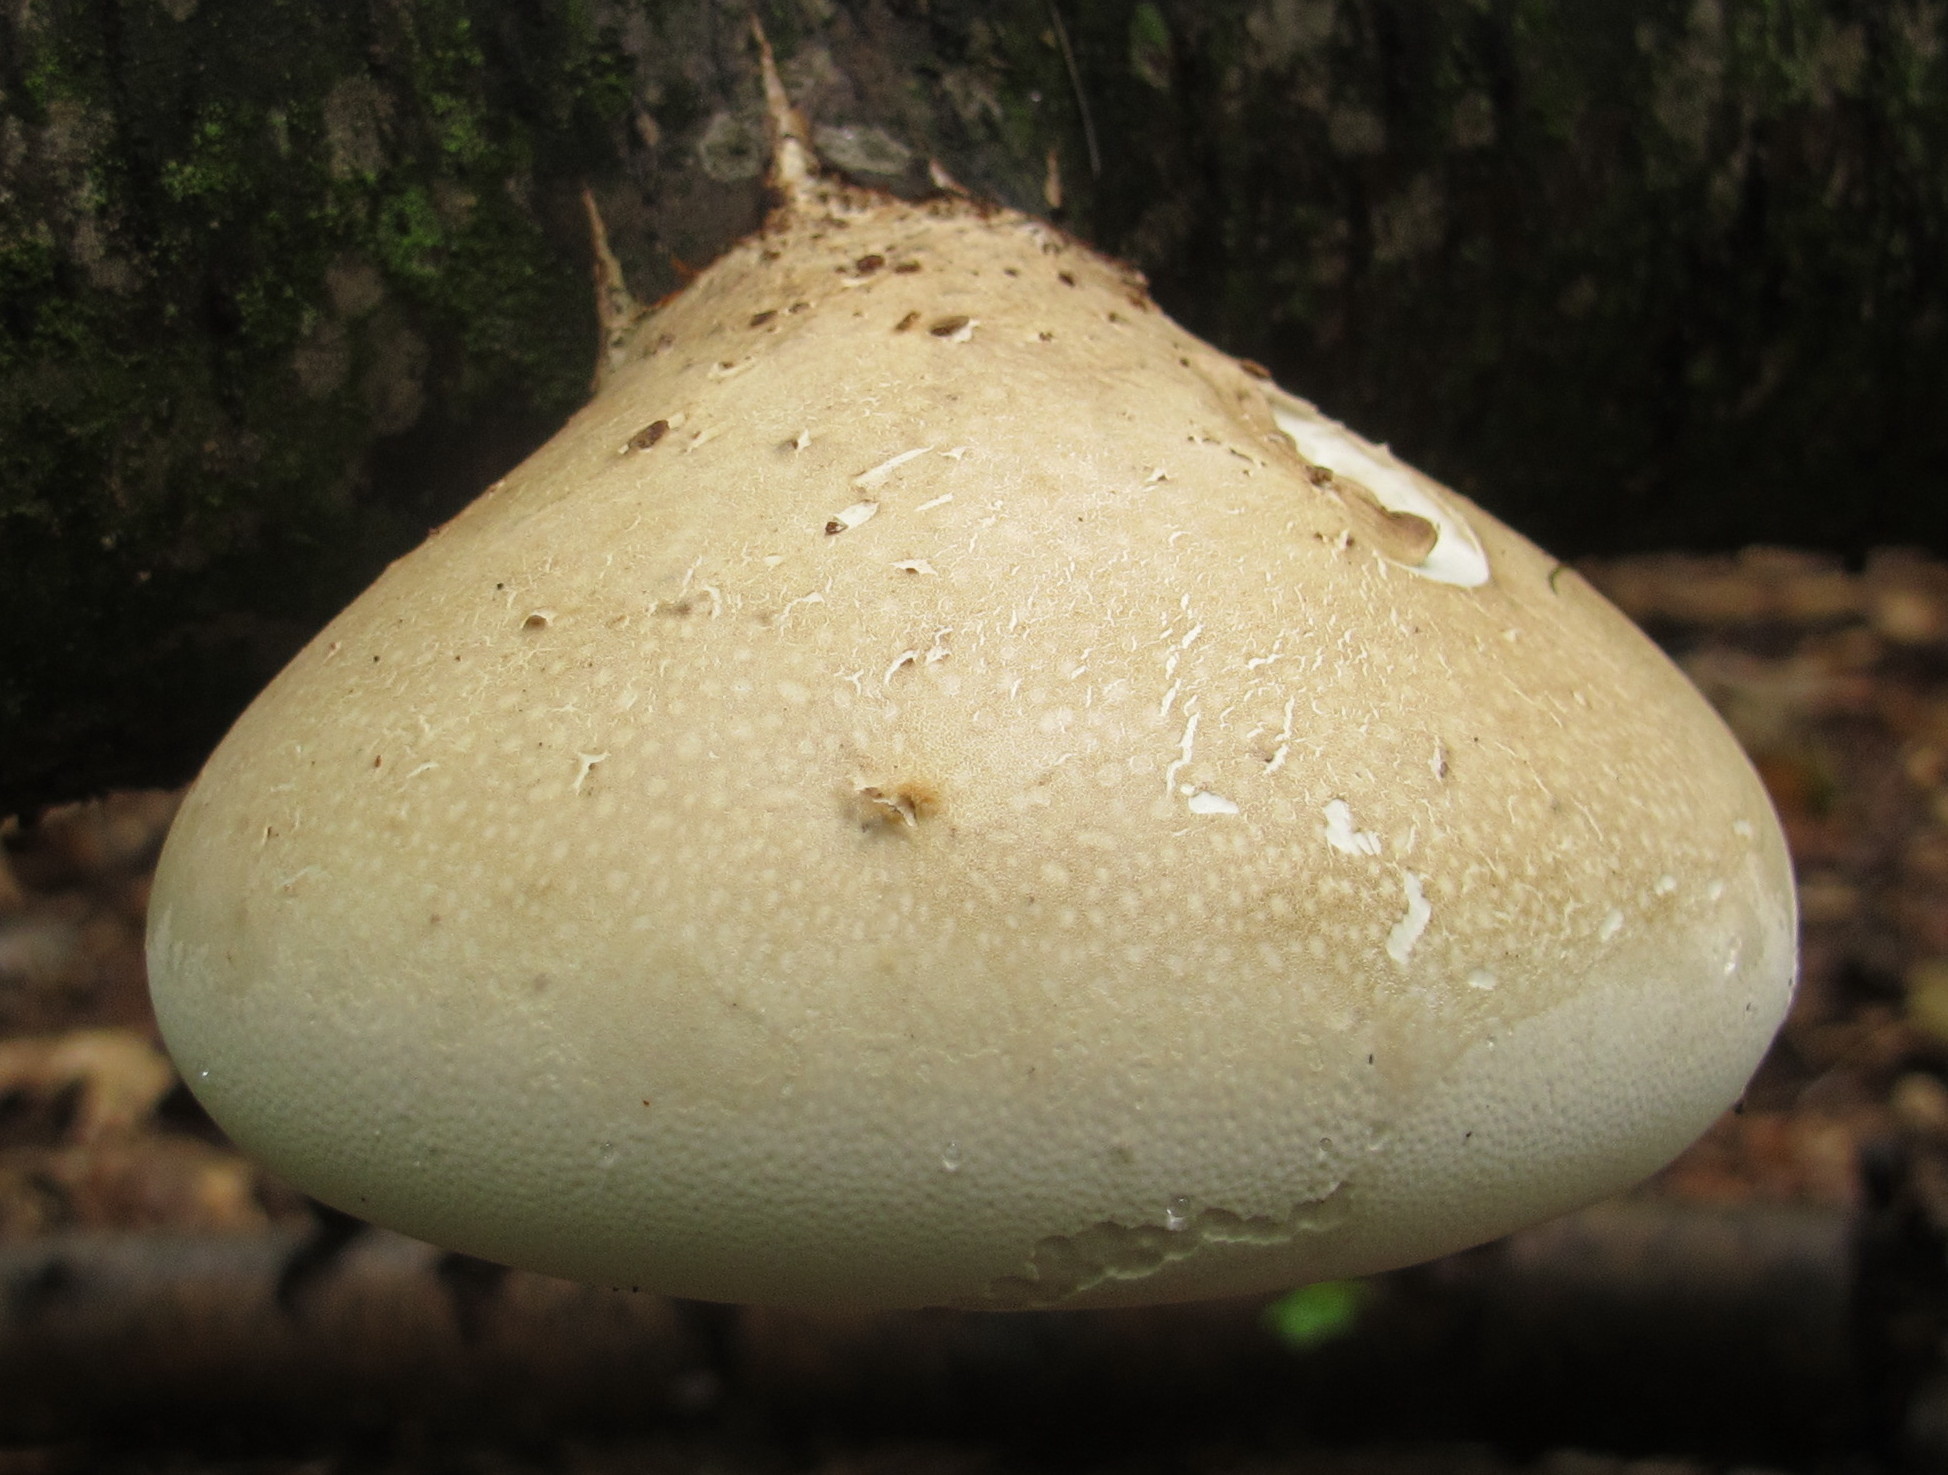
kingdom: Fungi
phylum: Basidiomycota
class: Agaricomycetes
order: Polyporales
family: Fomitopsidaceae
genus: Fomitopsis
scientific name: Fomitopsis betulina
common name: Birch polypore
